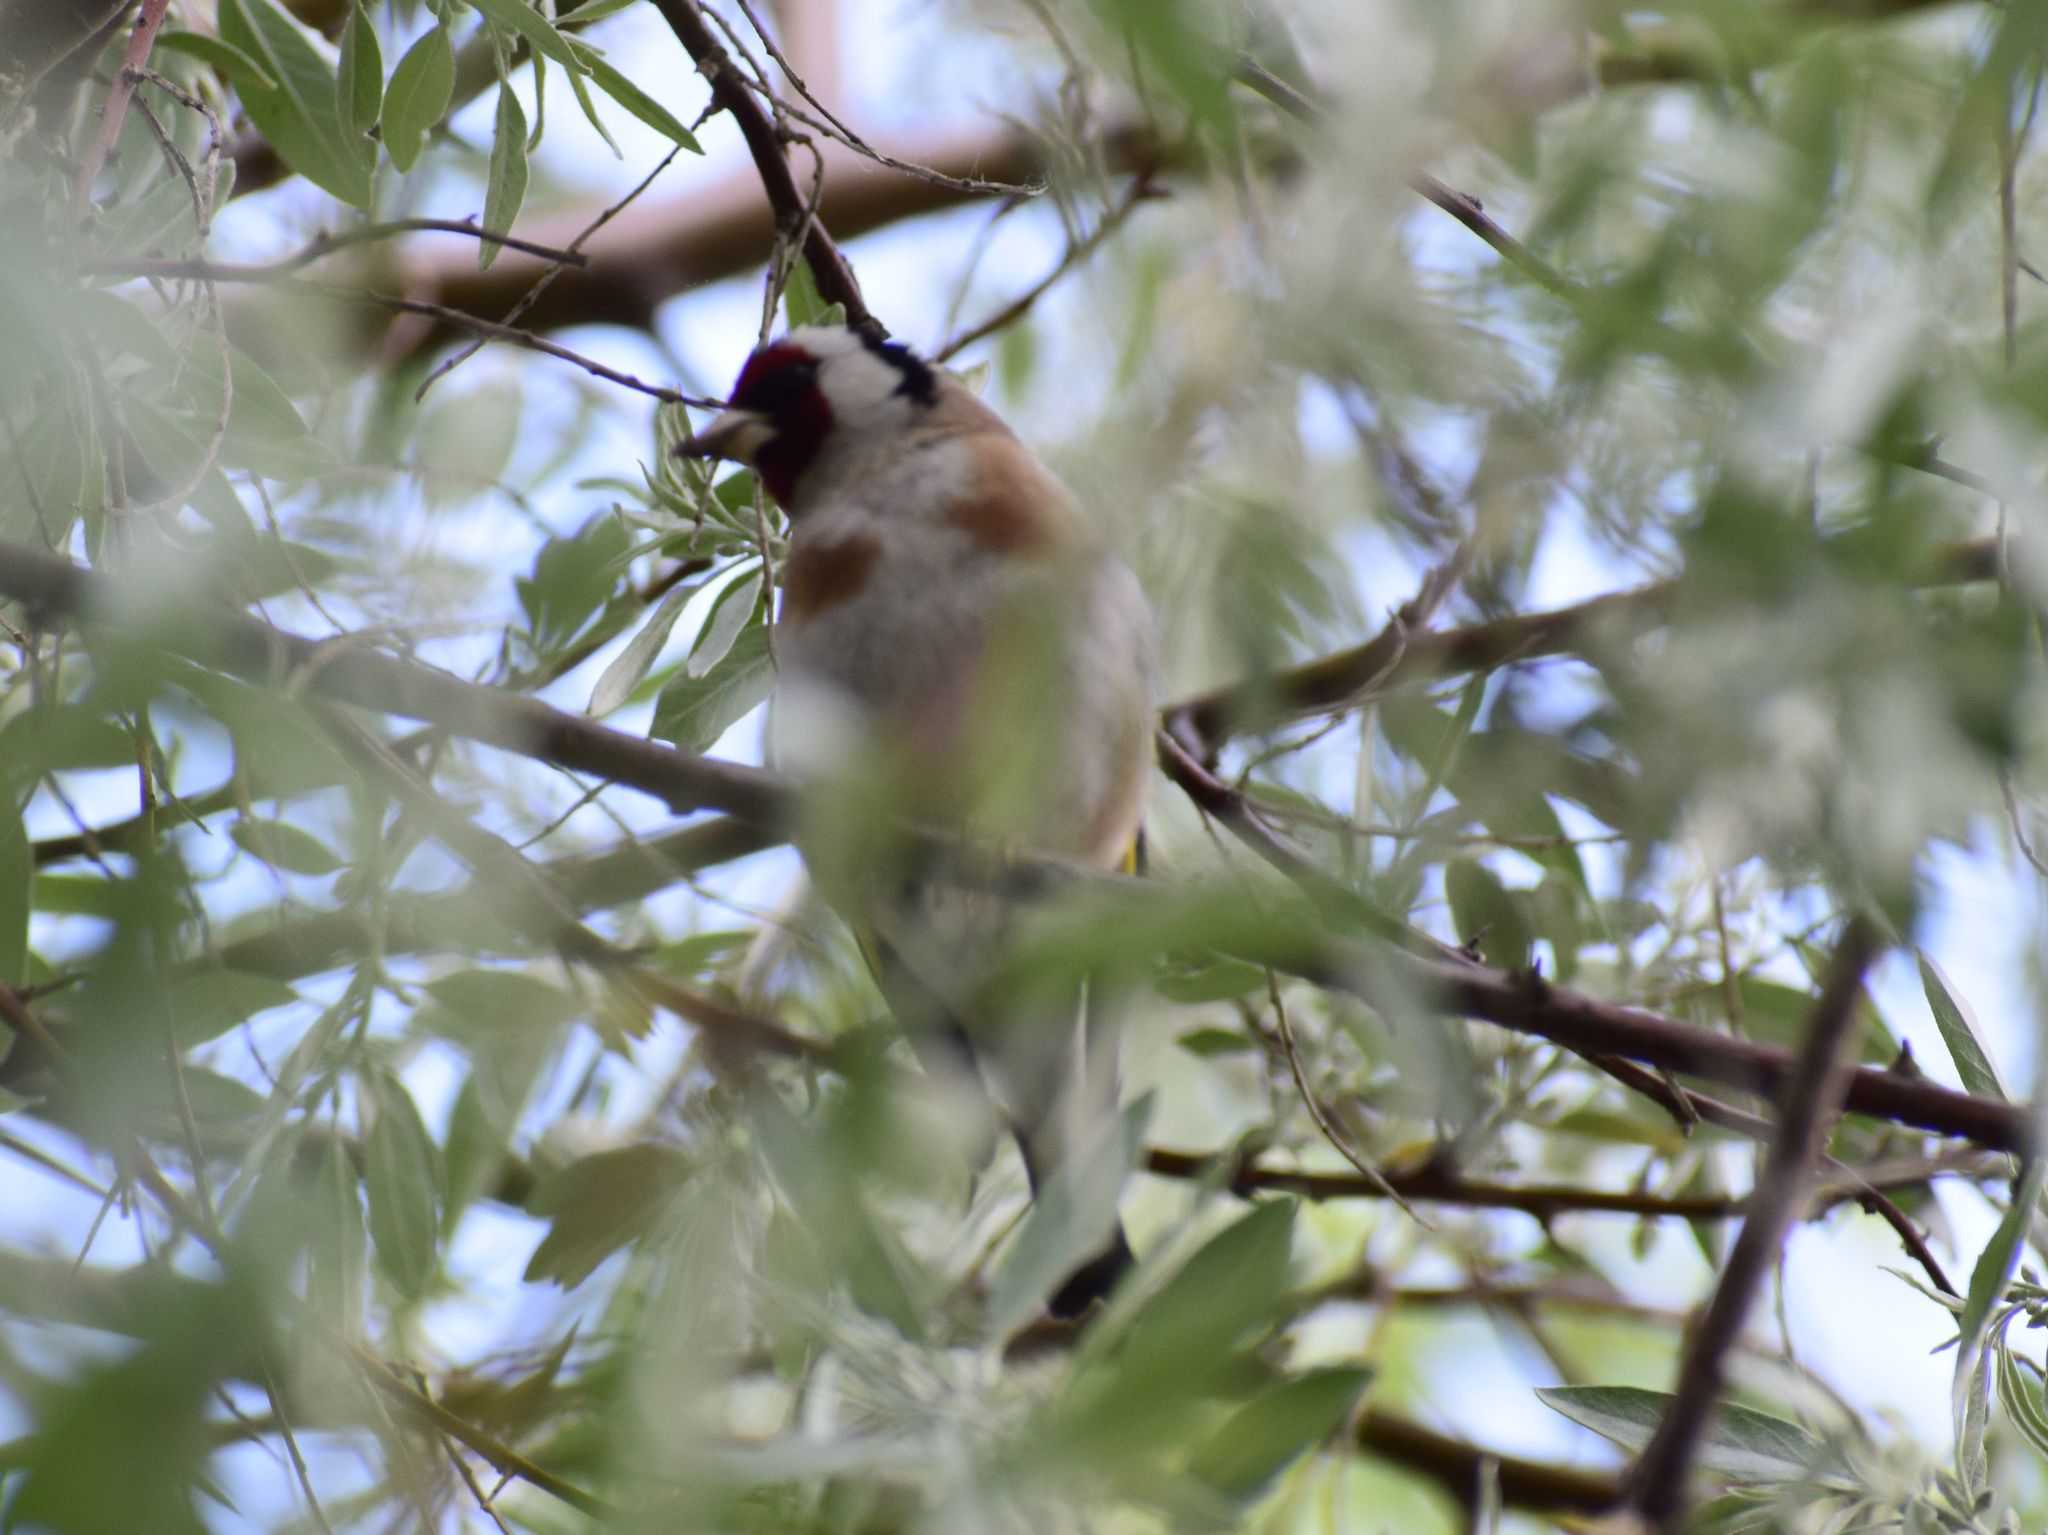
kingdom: Animalia
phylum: Chordata
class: Aves
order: Passeriformes
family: Fringillidae
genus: Carduelis
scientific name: Carduelis carduelis
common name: European goldfinch
